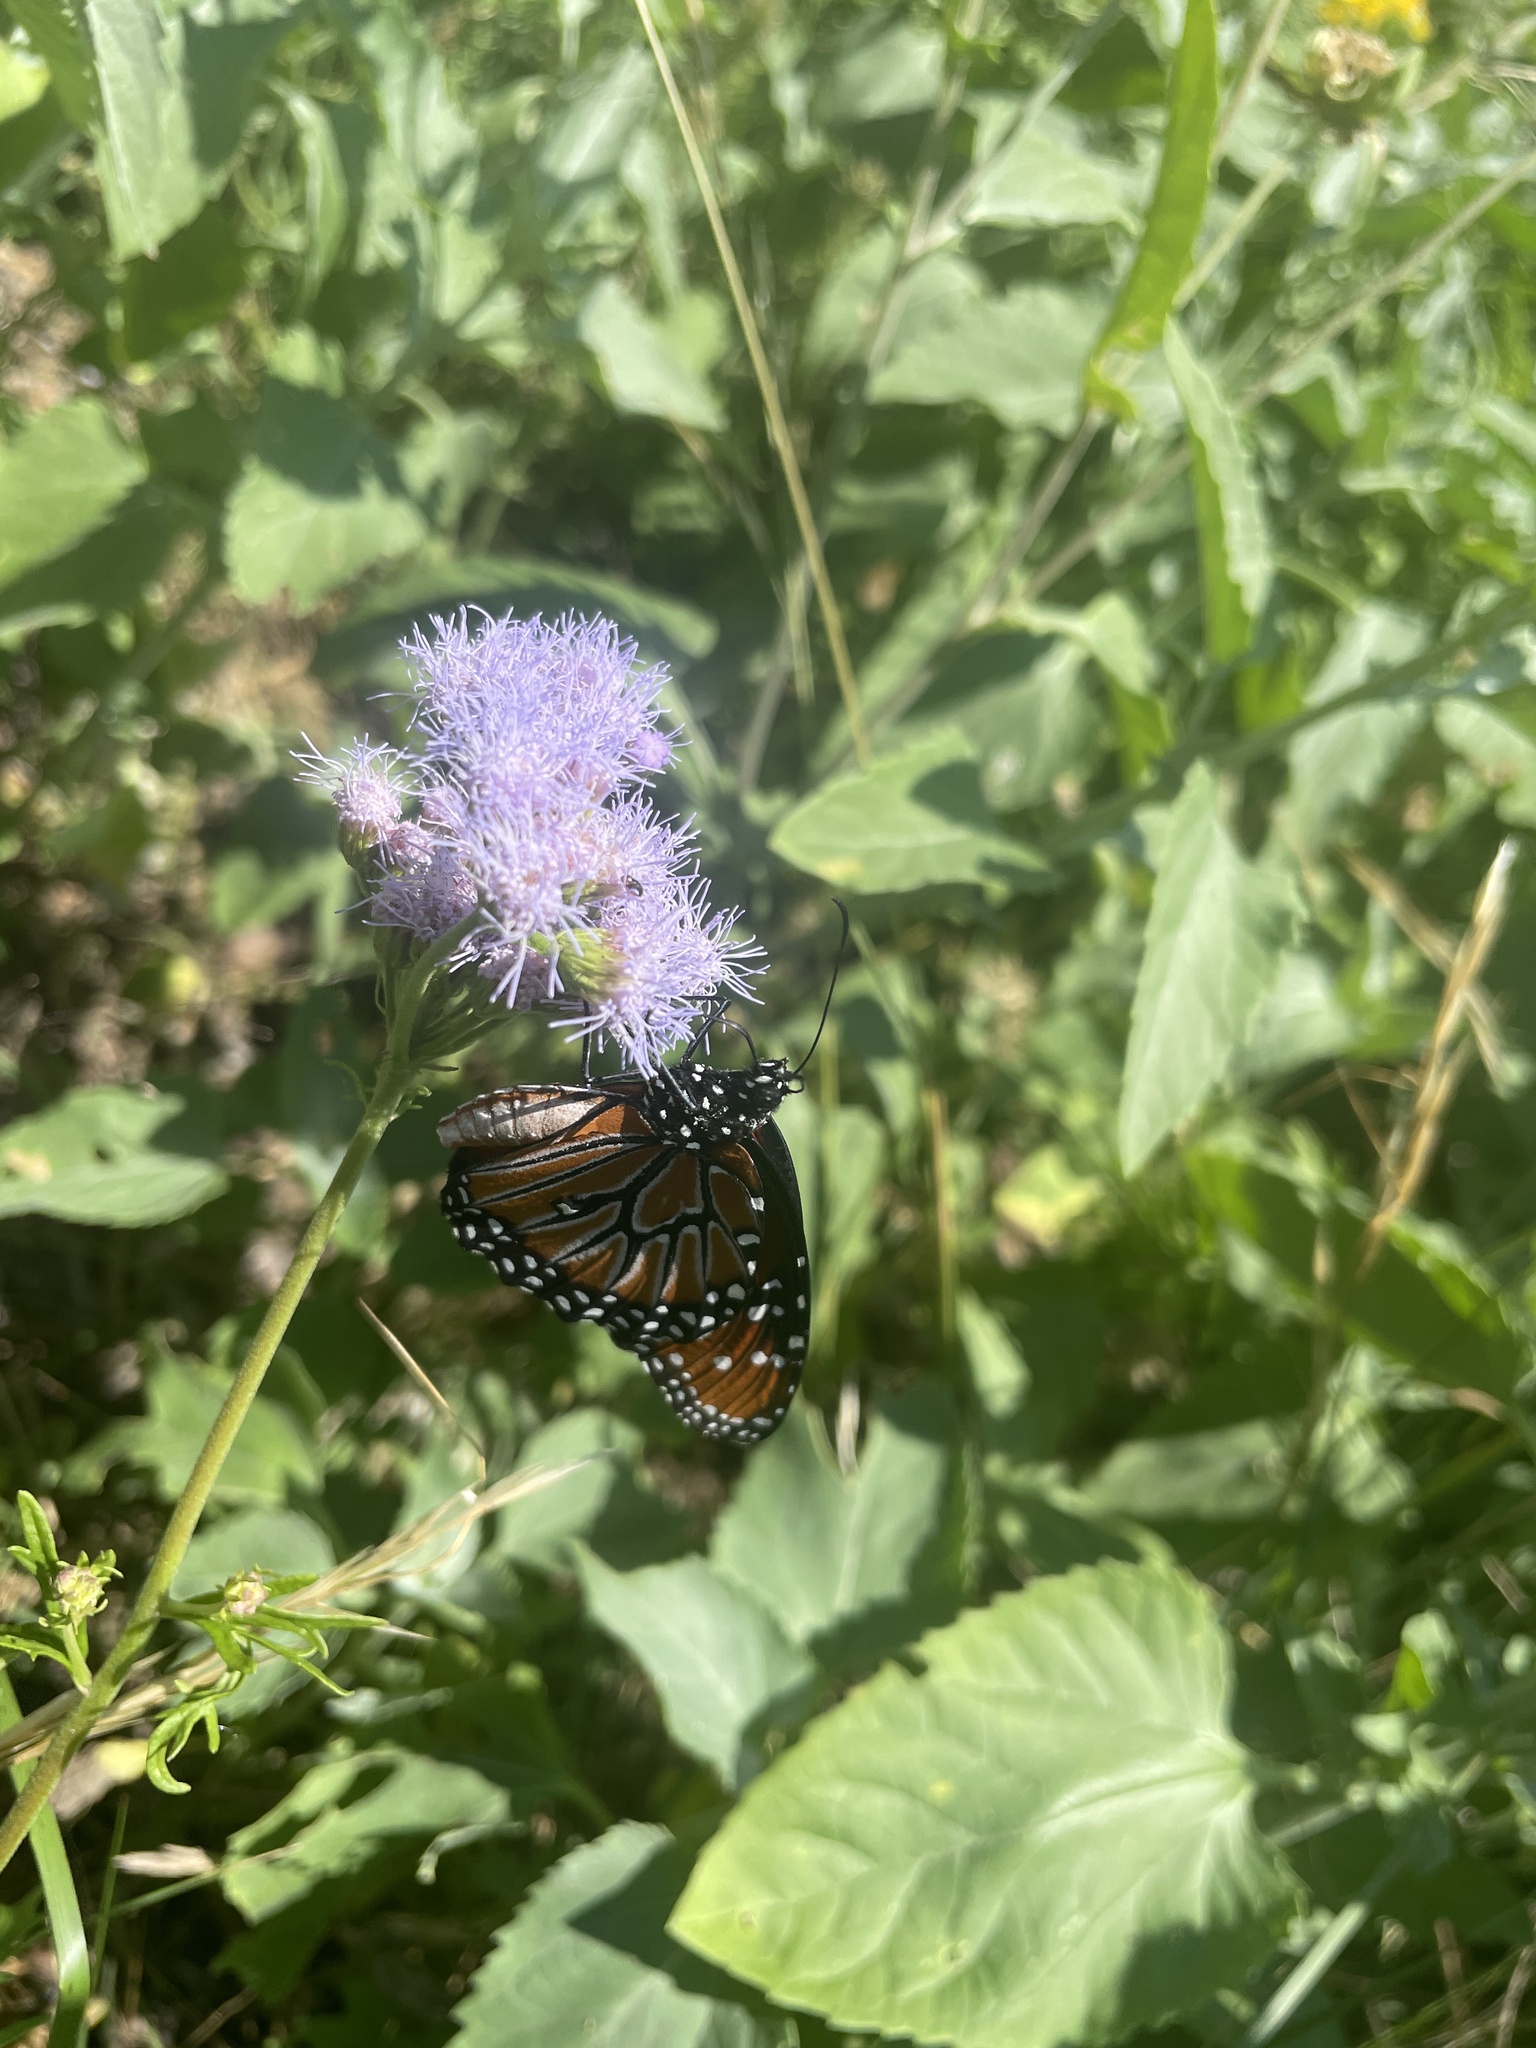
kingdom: Animalia
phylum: Arthropoda
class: Insecta
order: Lepidoptera
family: Nymphalidae
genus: Danaus
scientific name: Danaus gilippus
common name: Queen
